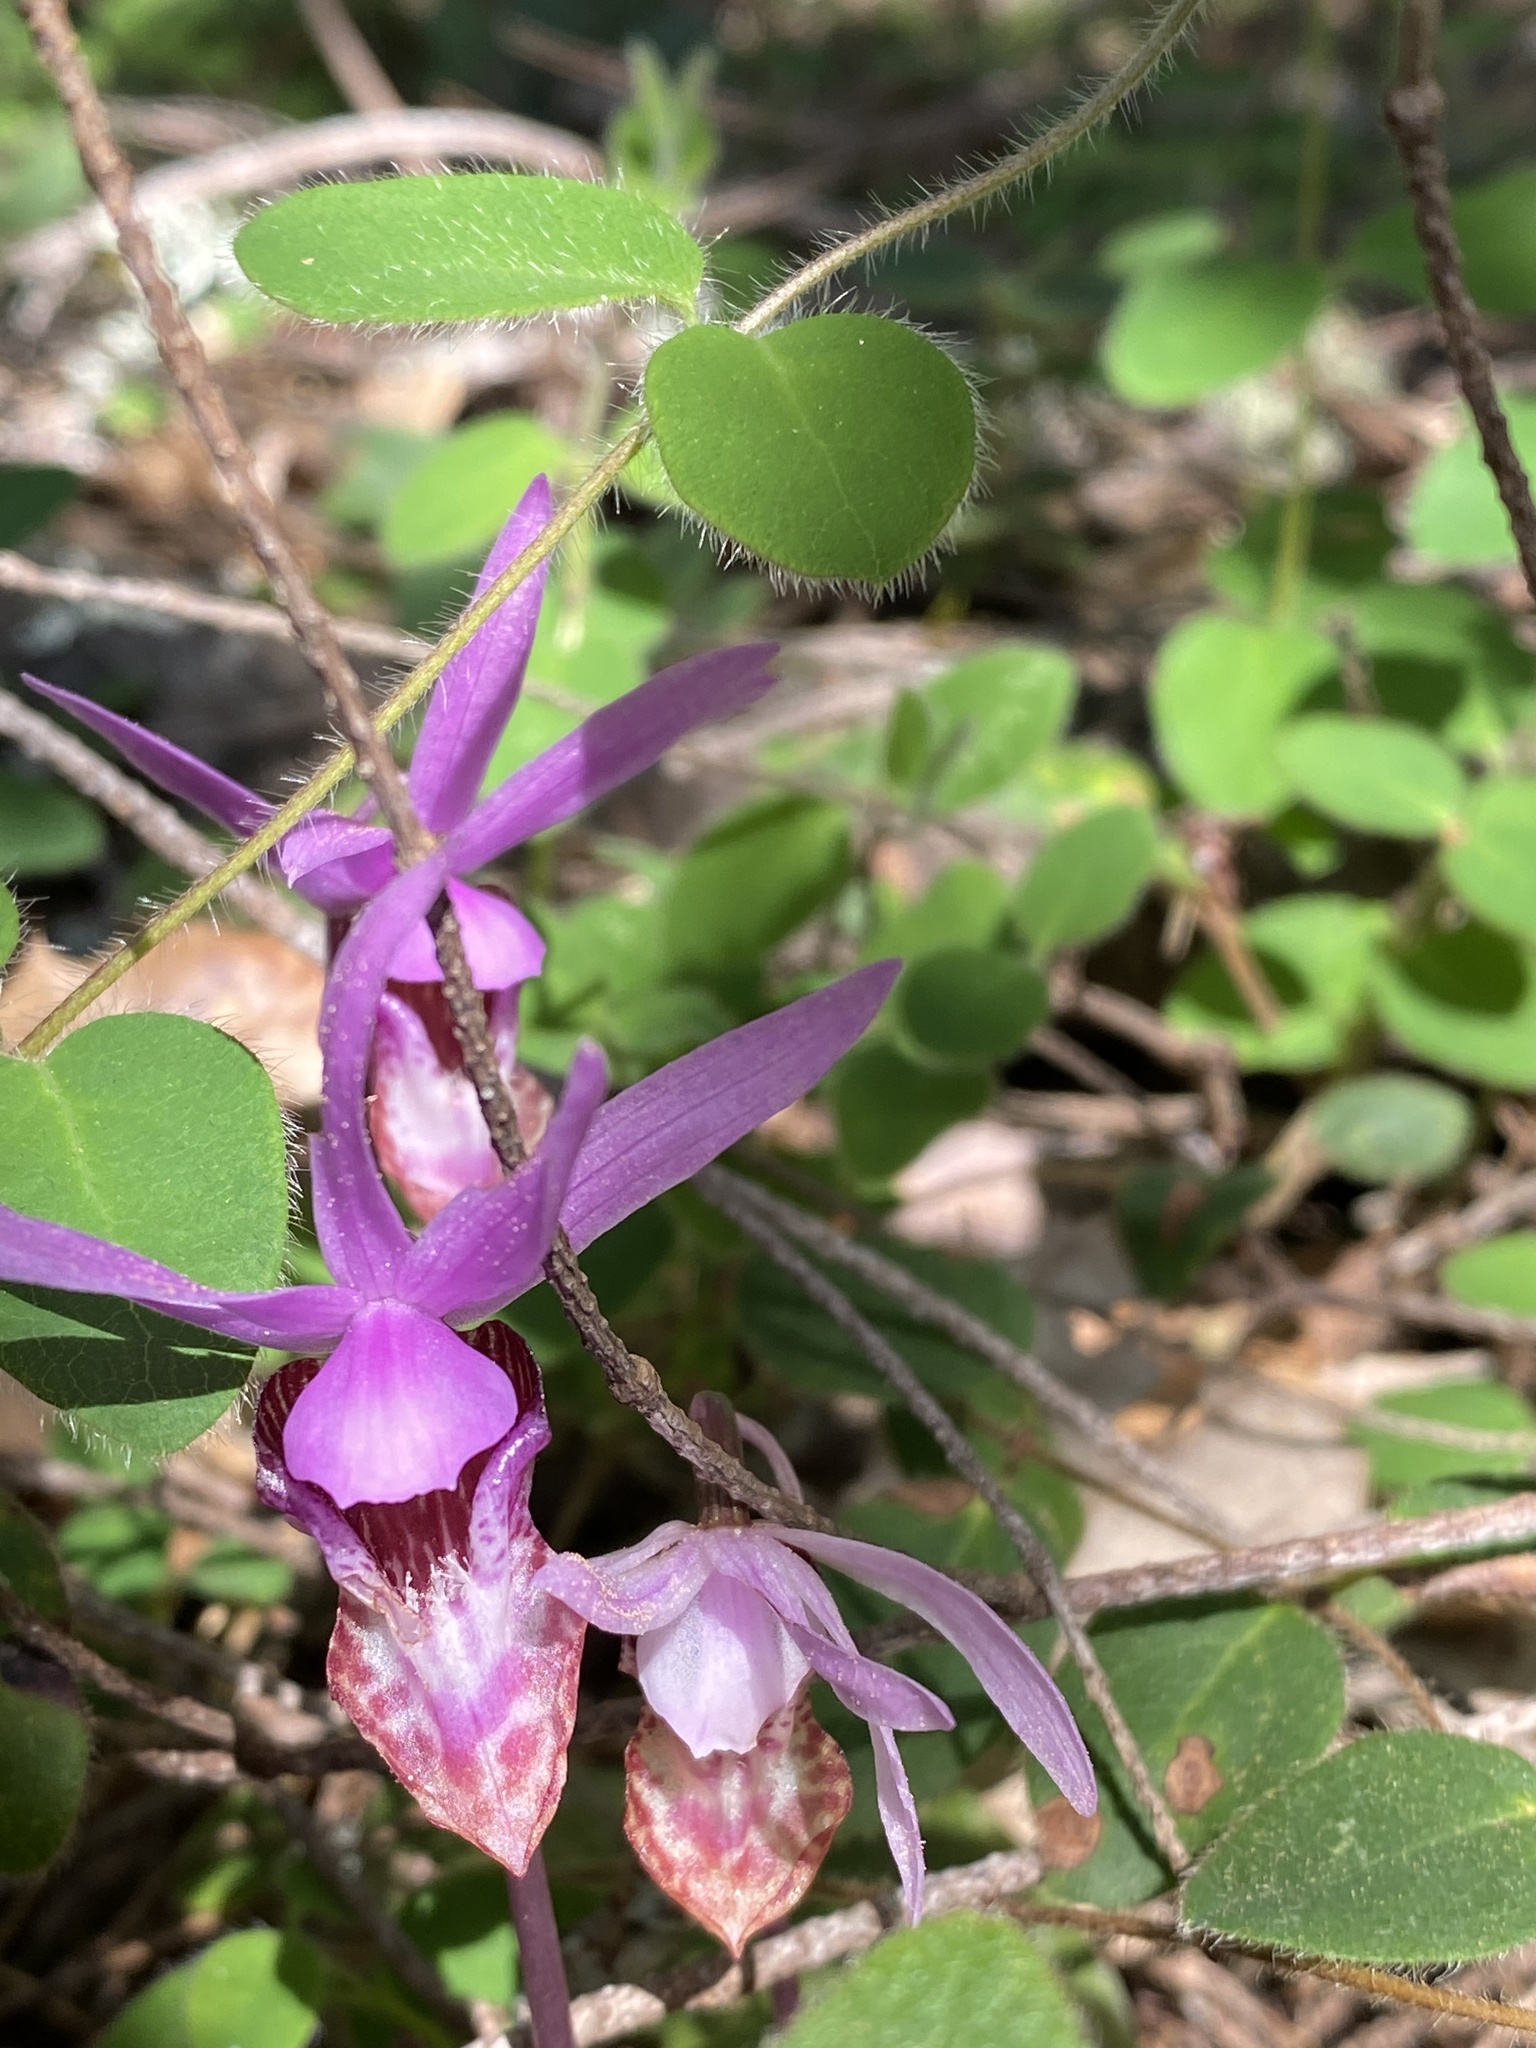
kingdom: Plantae
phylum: Tracheophyta
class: Liliopsida
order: Asparagales
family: Orchidaceae
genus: Calypso
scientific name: Calypso bulbosa
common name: Calypso
